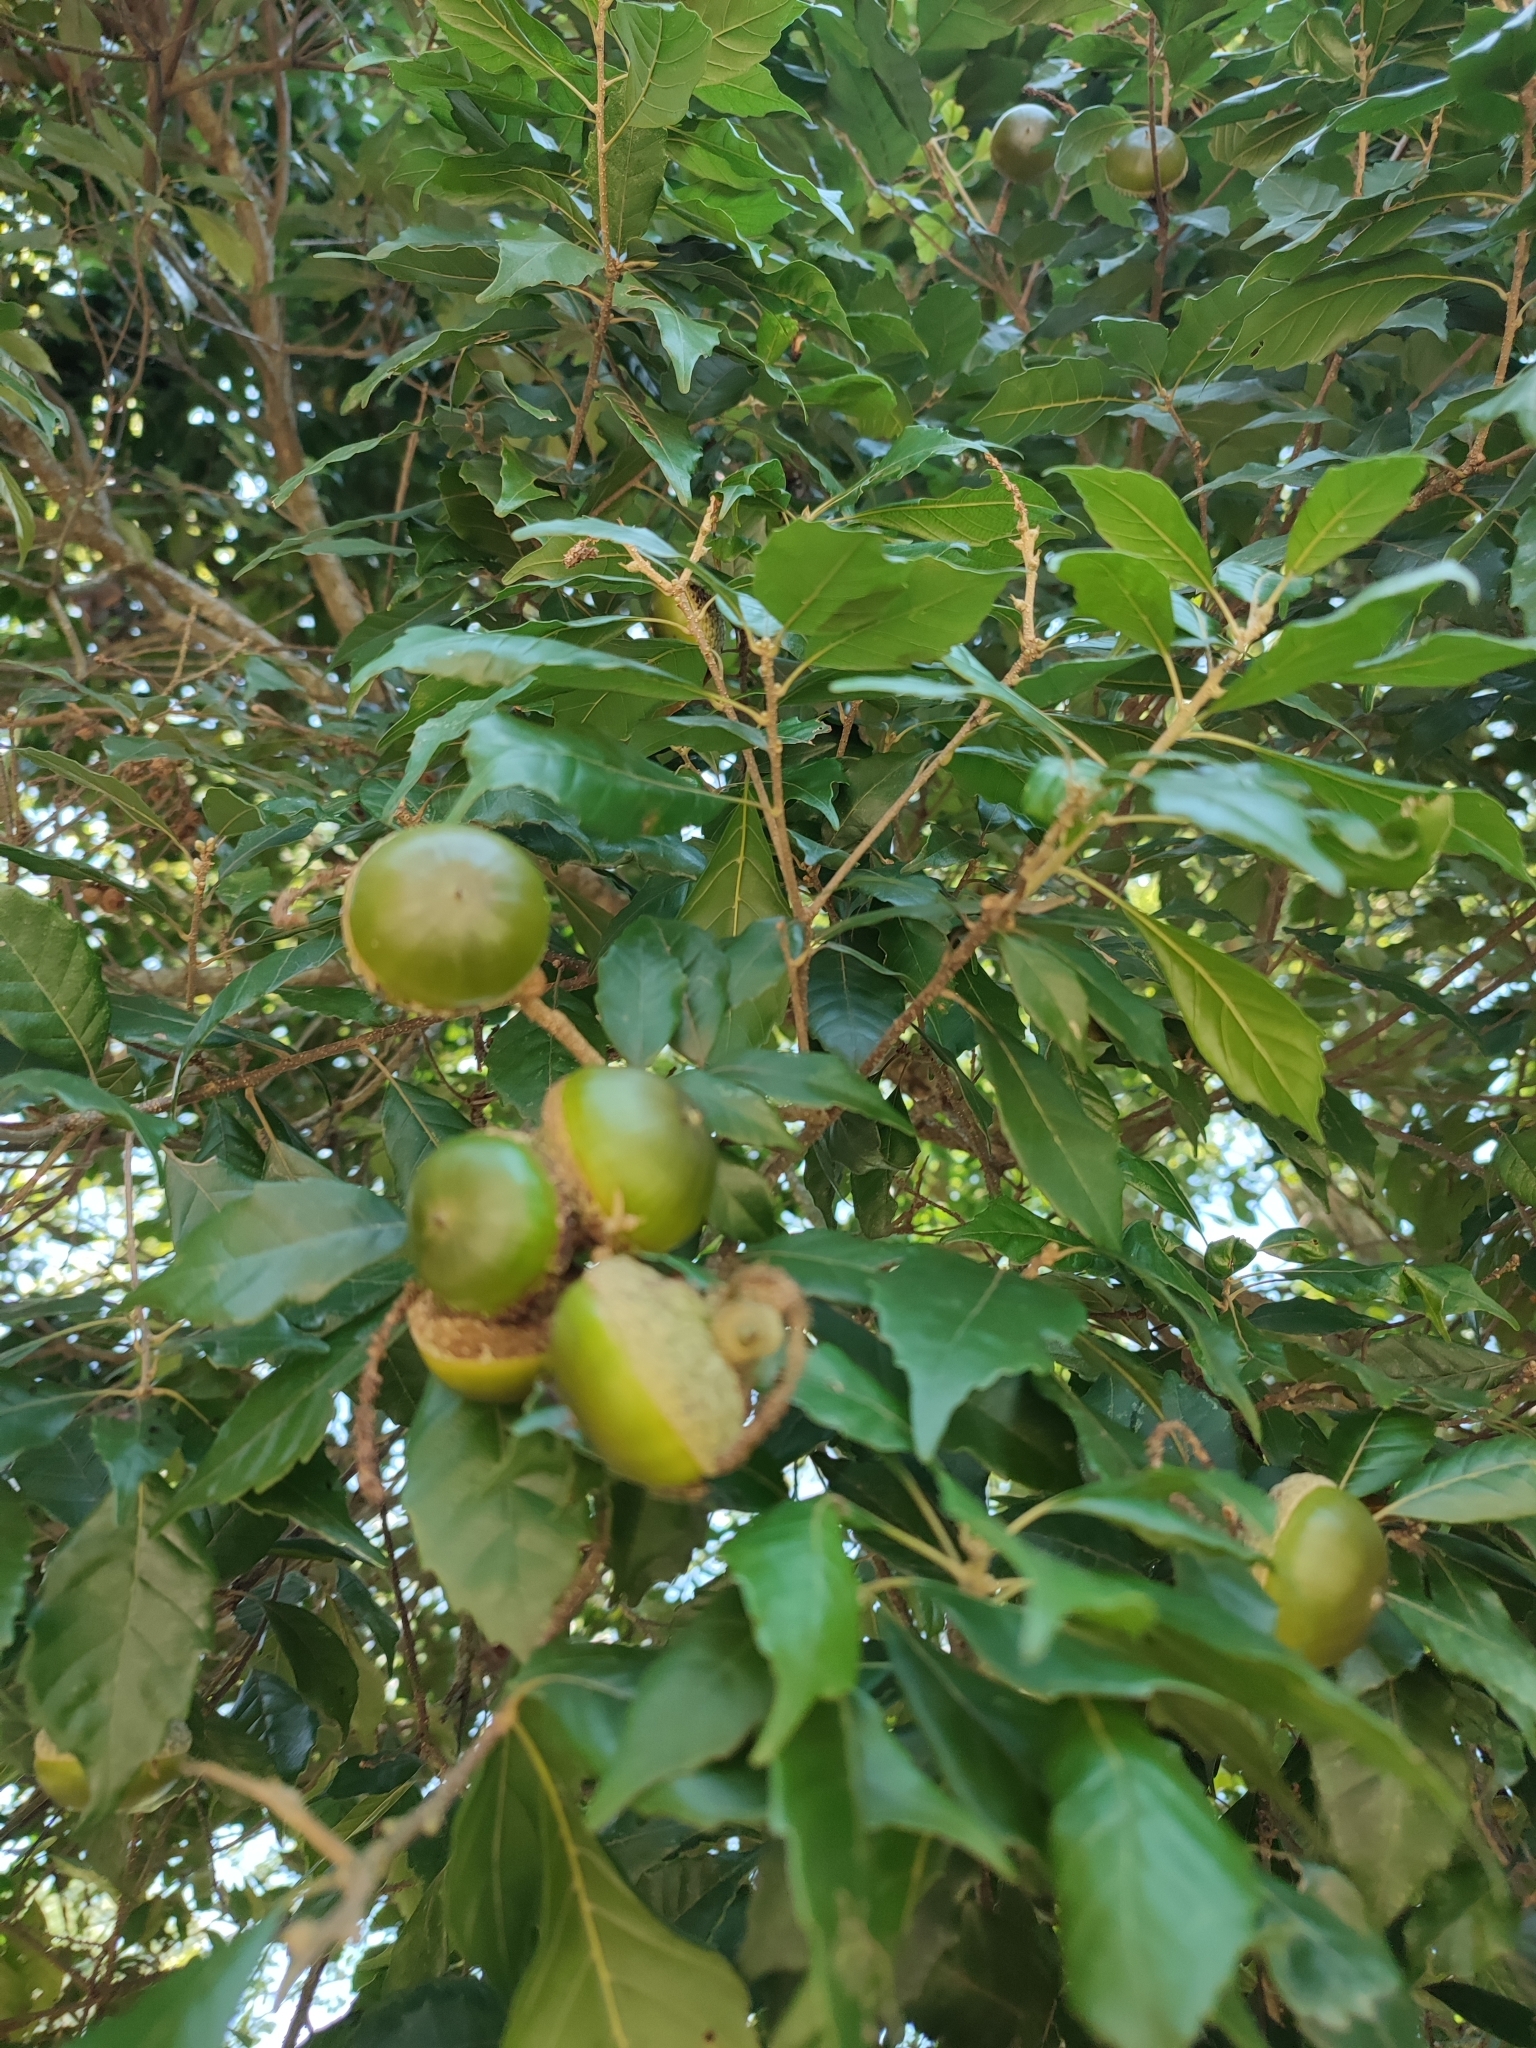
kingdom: Plantae
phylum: Tracheophyta
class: Magnoliopsida
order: Fagales
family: Fagaceae
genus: Lithocarpus
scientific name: Lithocarpus konishii
